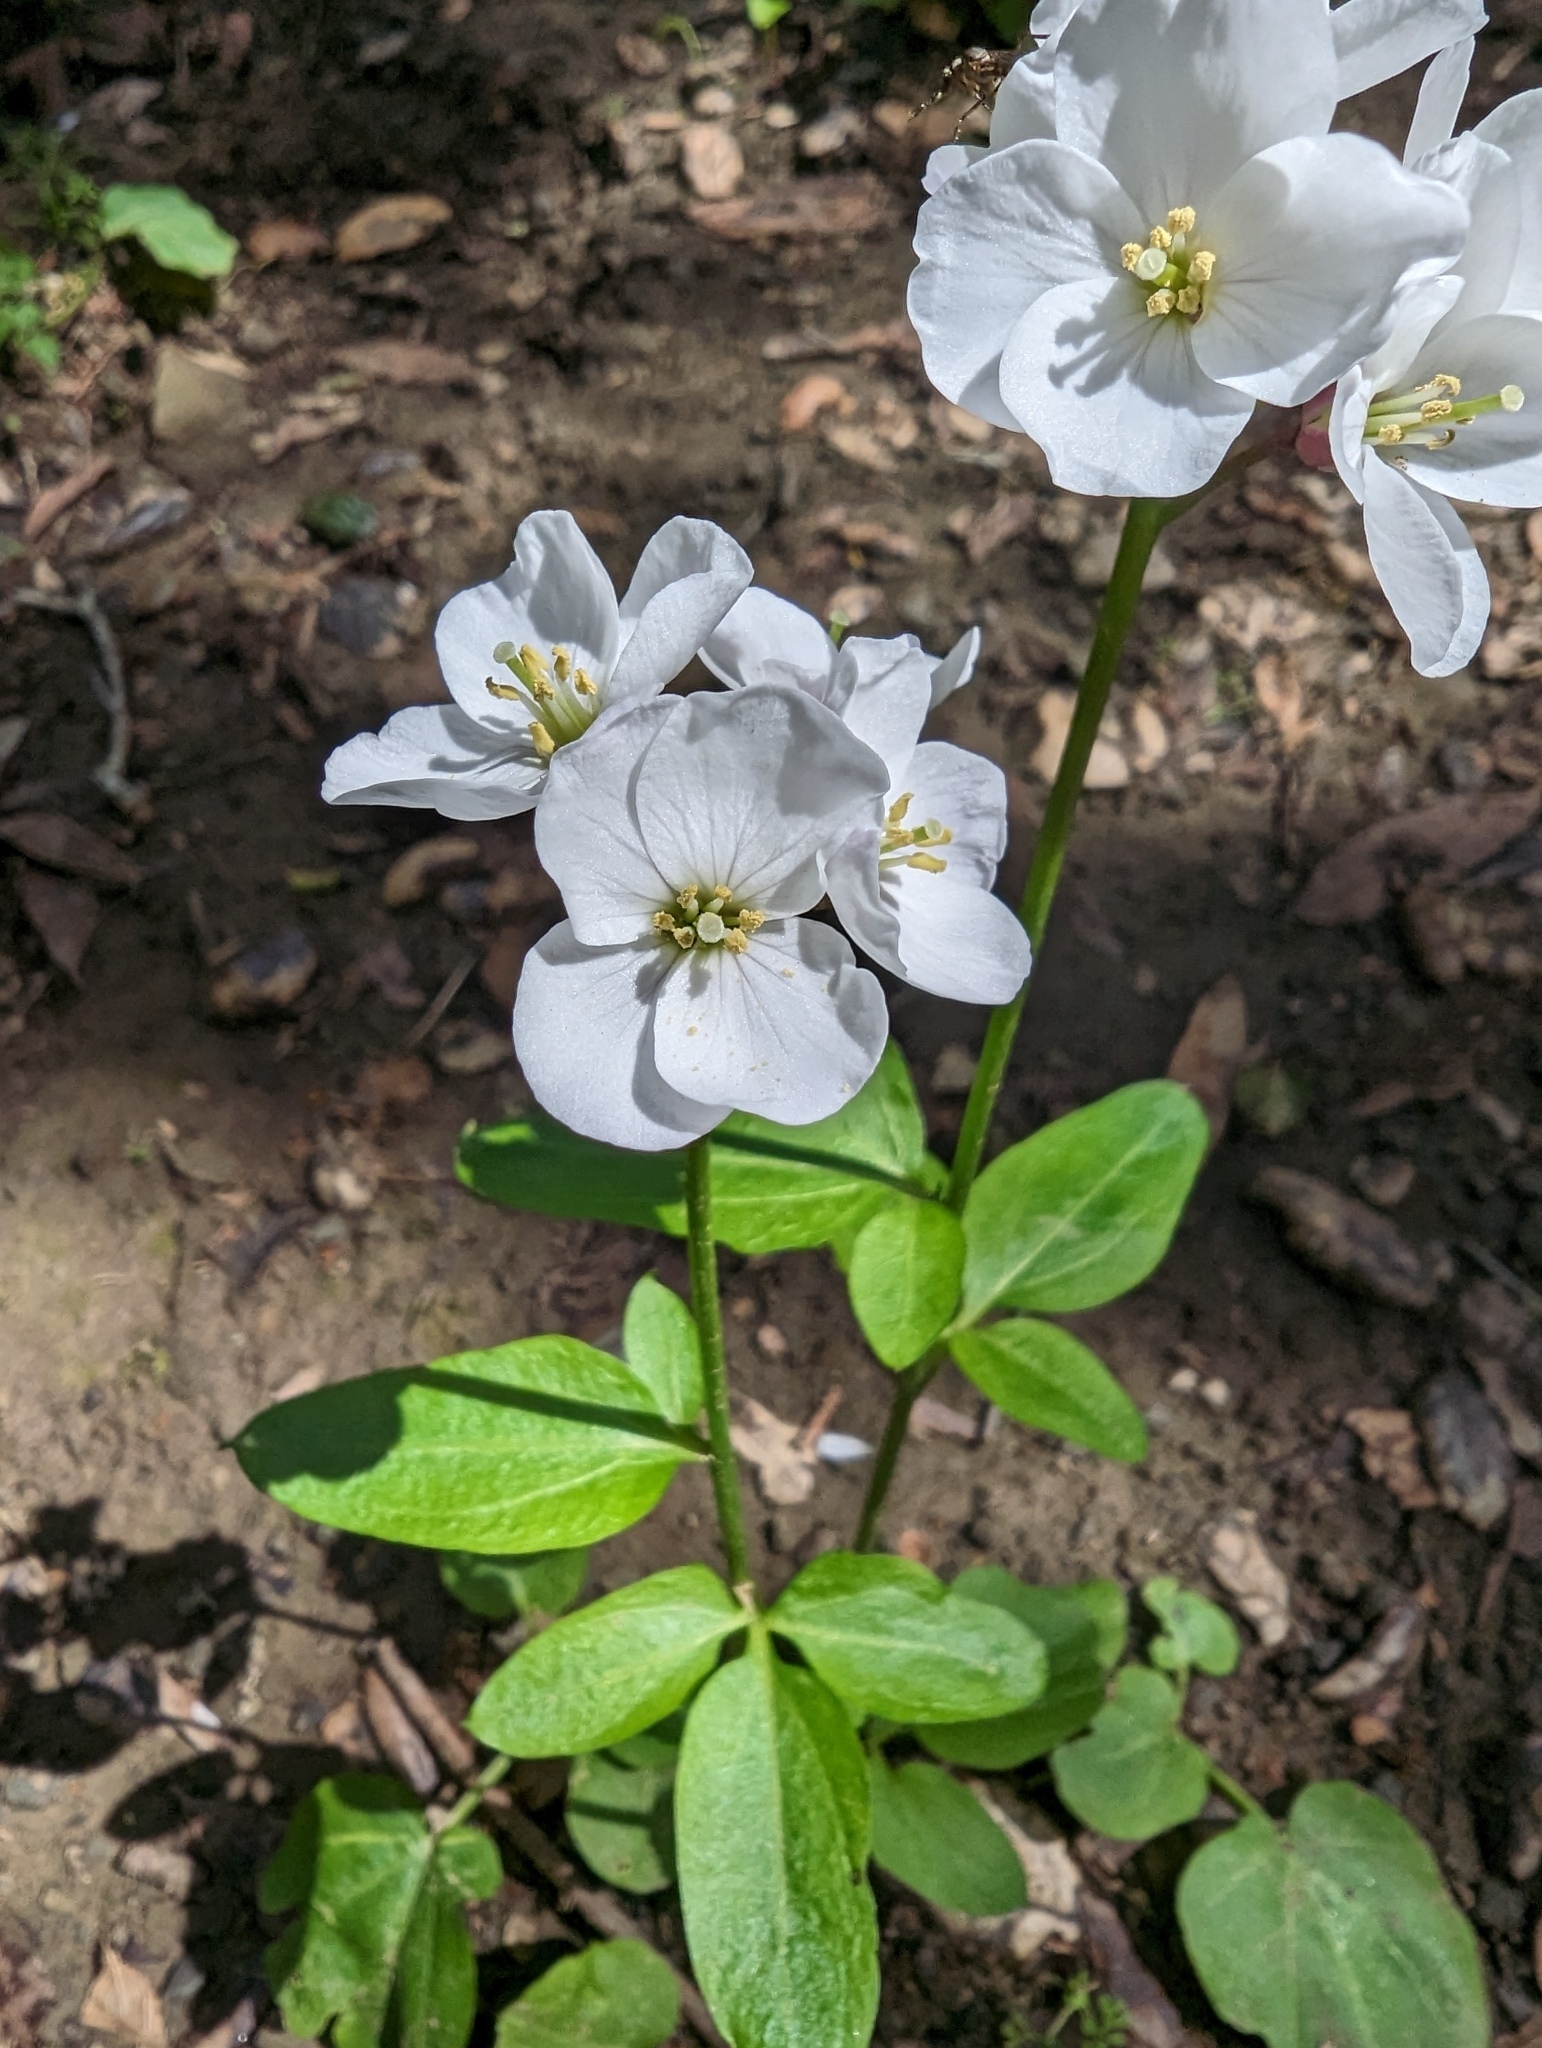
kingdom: Plantae
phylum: Tracheophyta
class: Magnoliopsida
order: Brassicales
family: Brassicaceae
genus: Cardamine
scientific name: Cardamine californica
